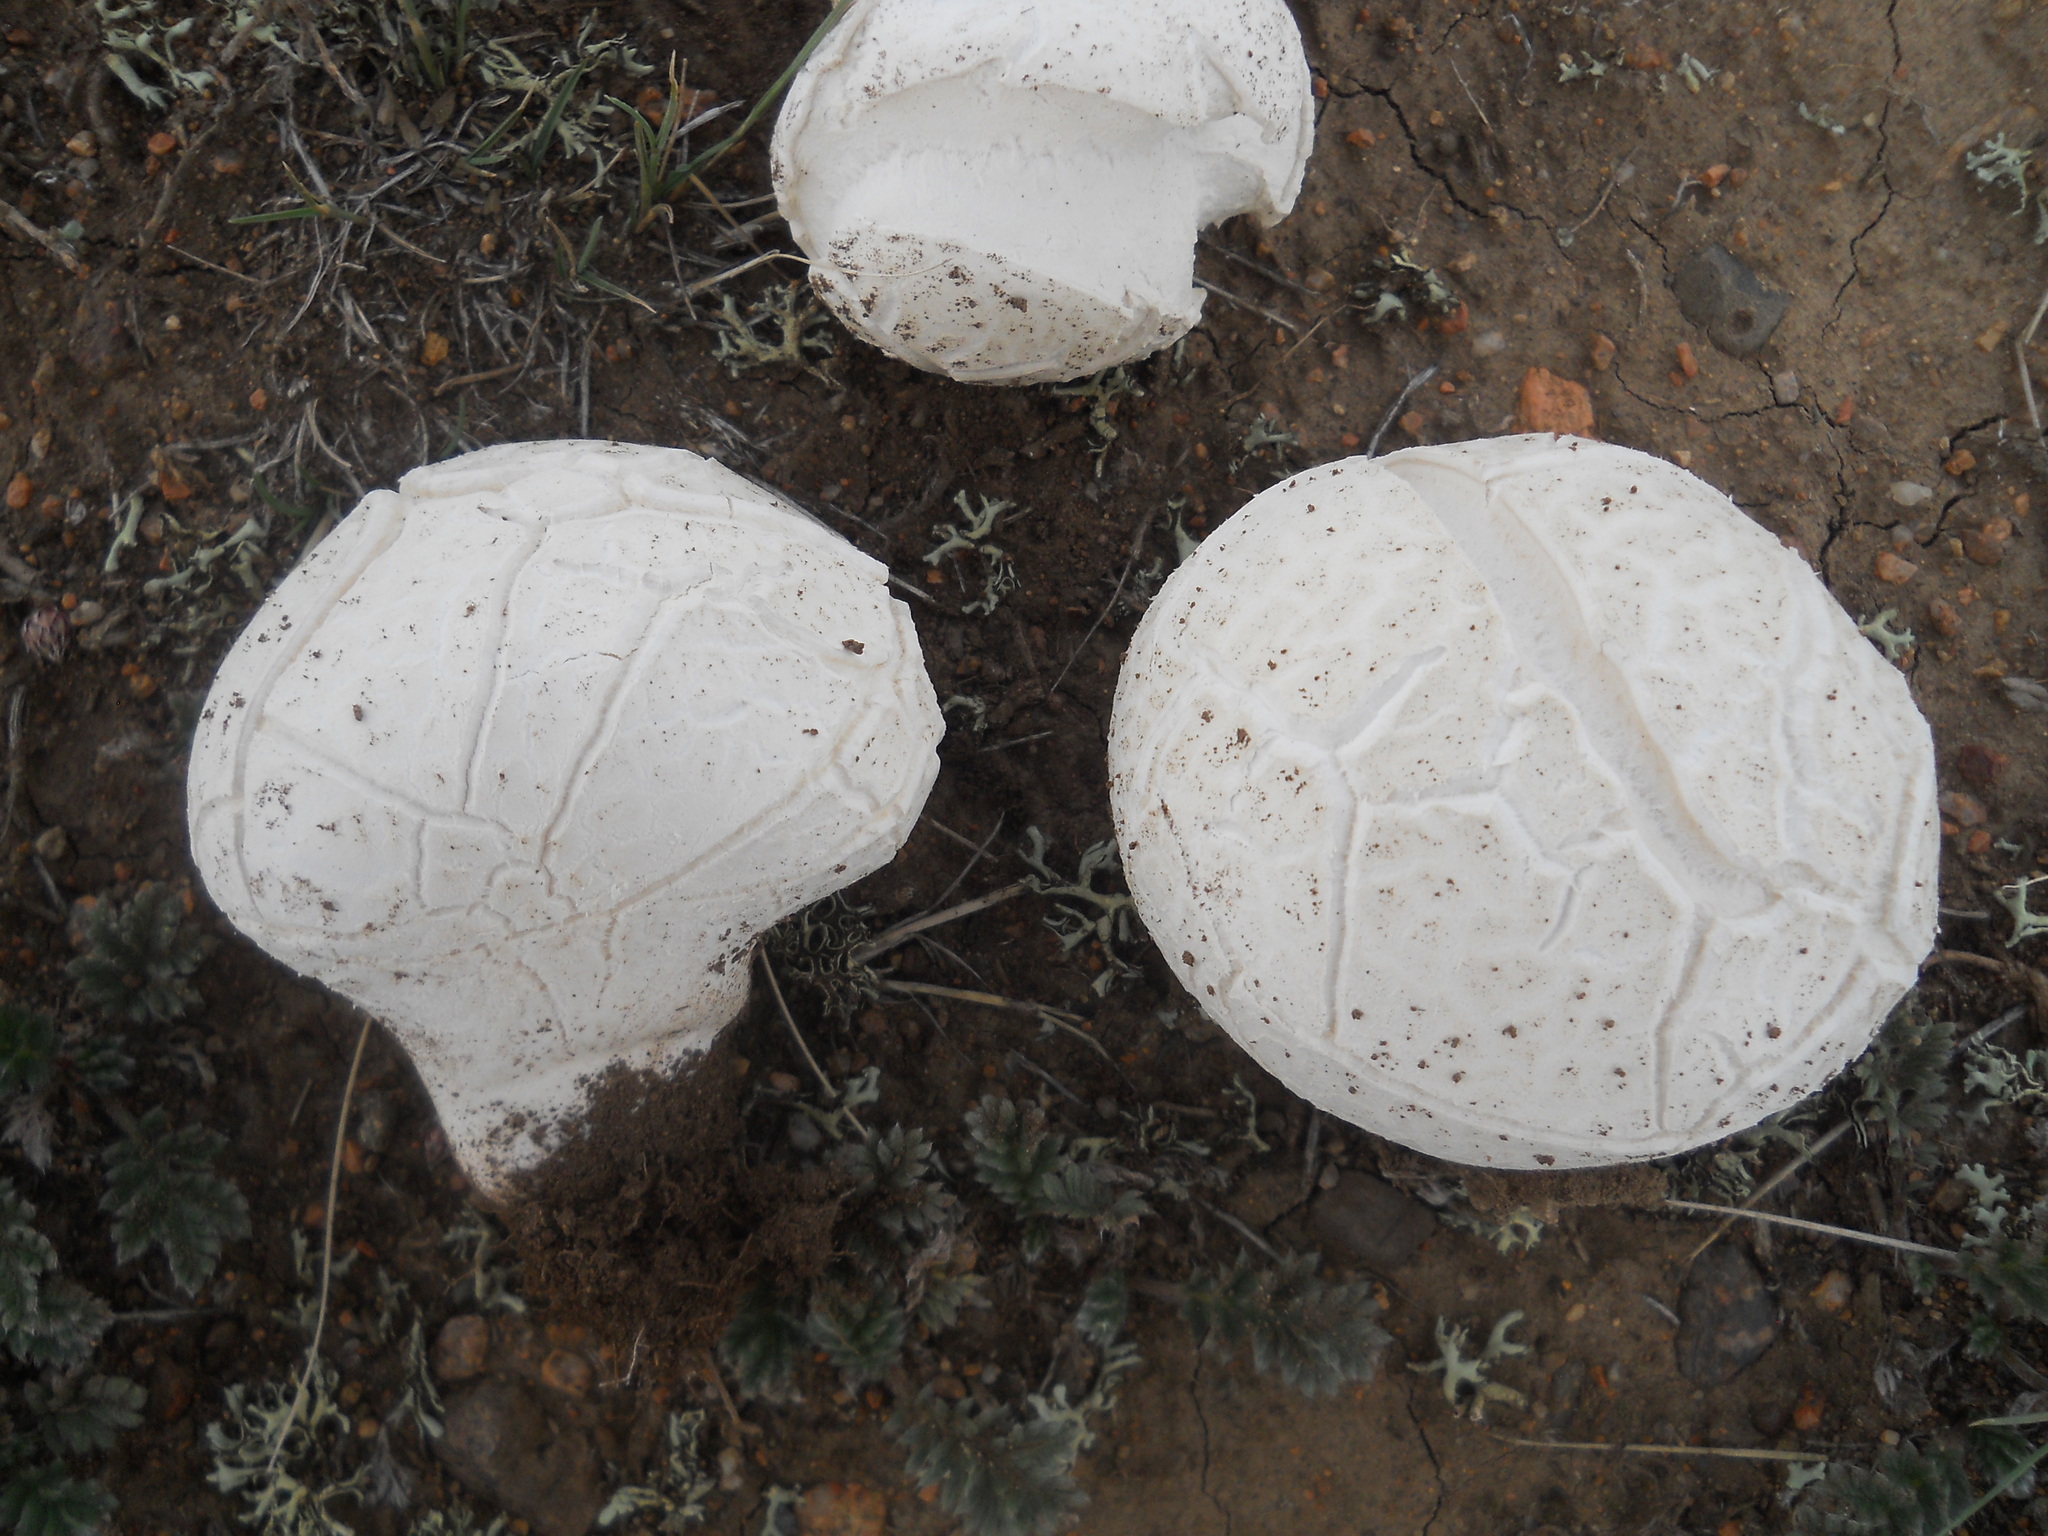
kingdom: Fungi
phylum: Basidiomycota
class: Agaricomycetes
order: Agaricales
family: Lycoperdaceae
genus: Calbovista
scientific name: Calbovista subsculpta
